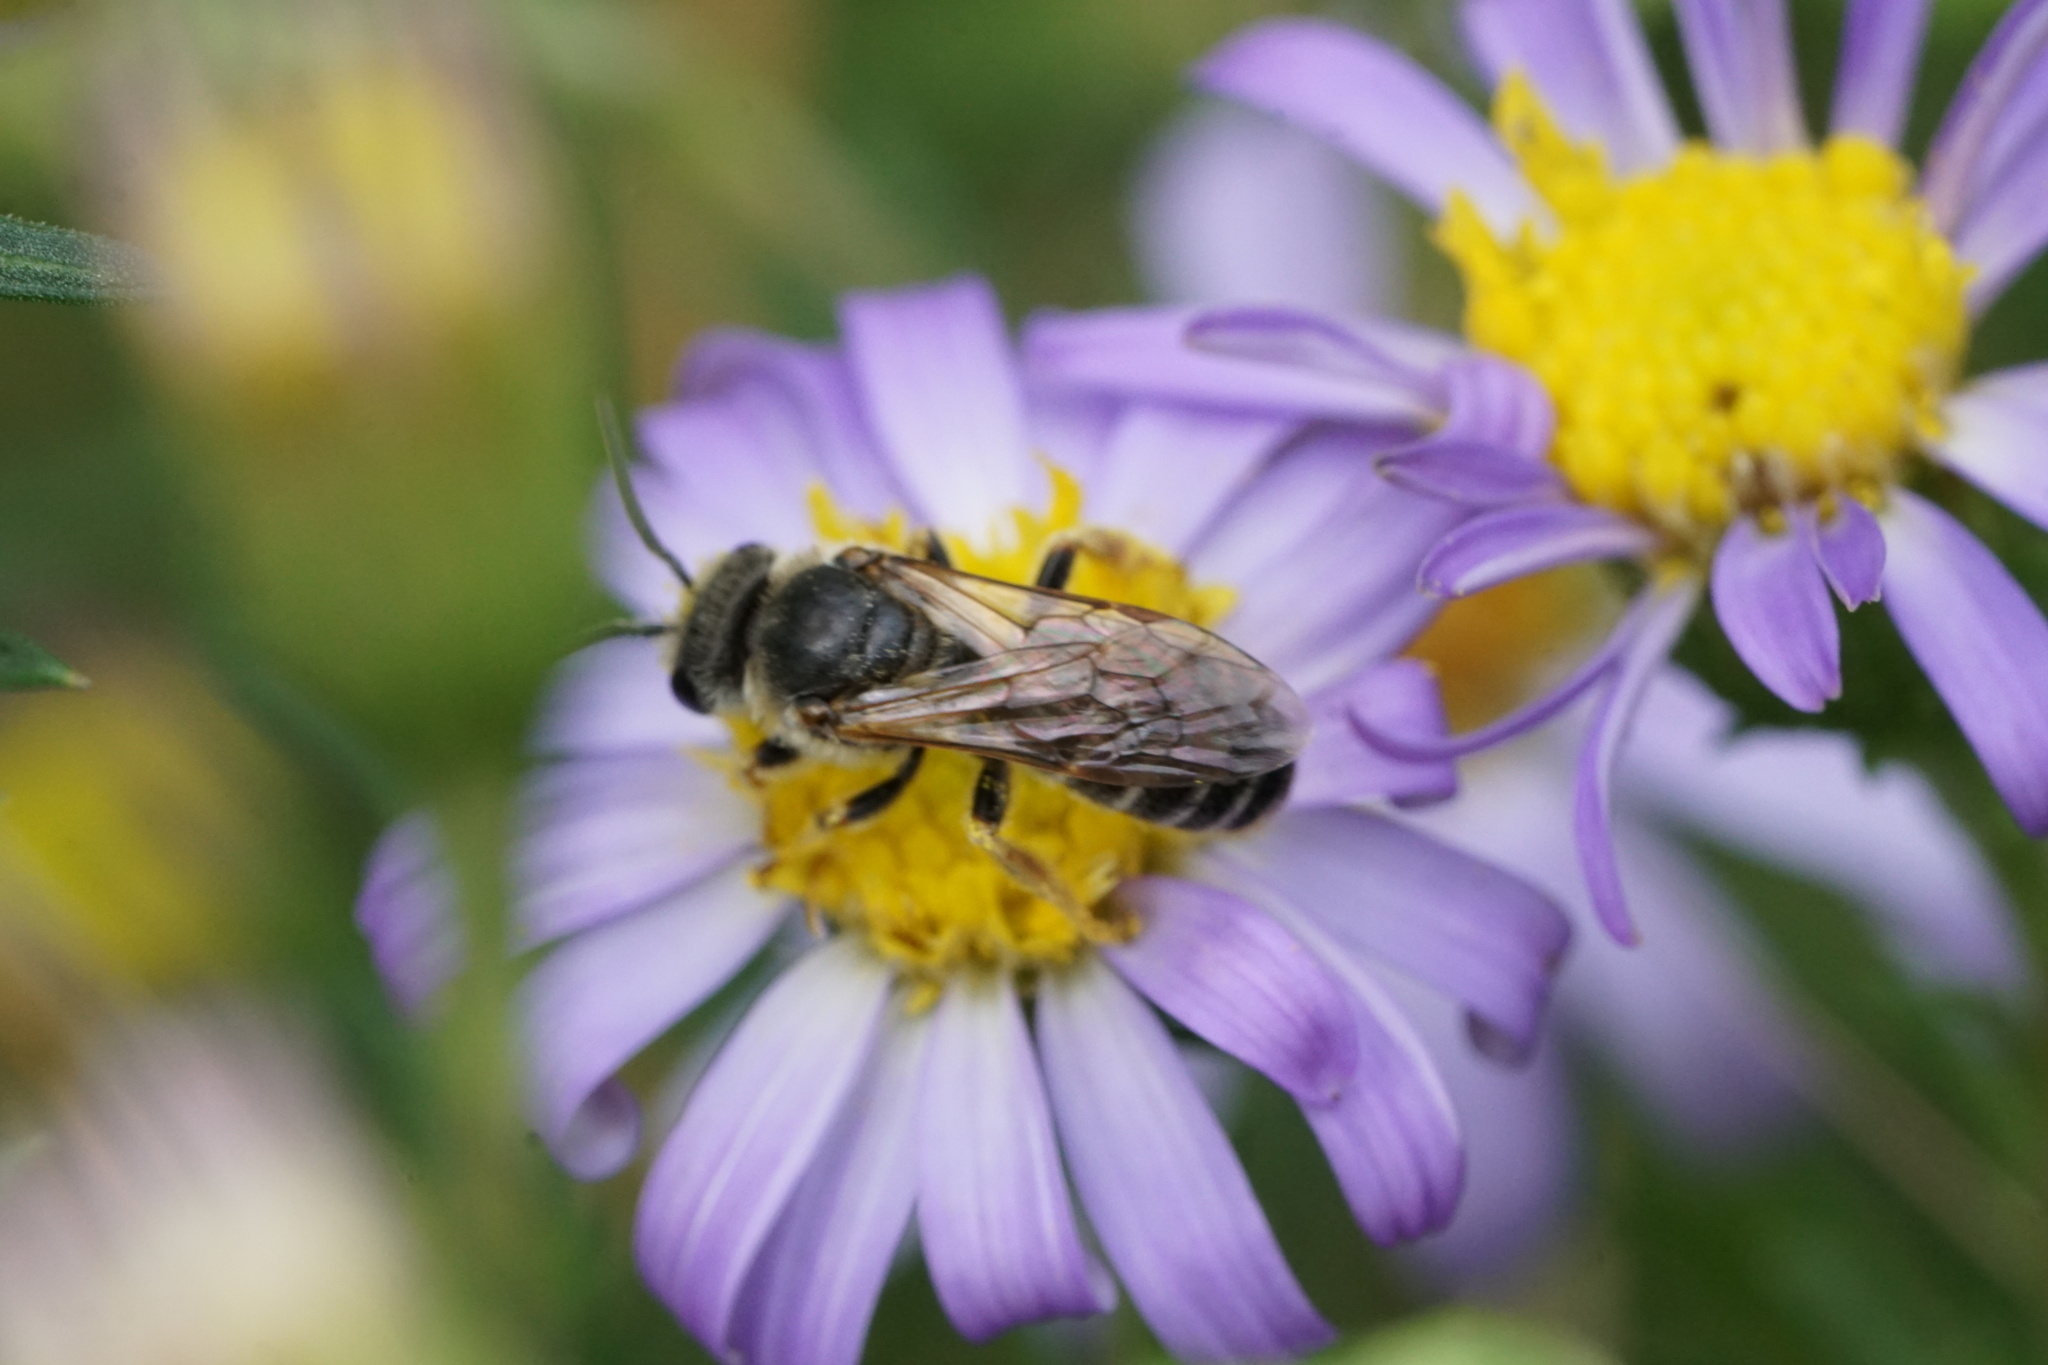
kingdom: Animalia
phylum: Arthropoda
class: Insecta
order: Hymenoptera
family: Halictidae
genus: Halictus
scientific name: Halictus ligatus
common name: Ligated furrow bee
